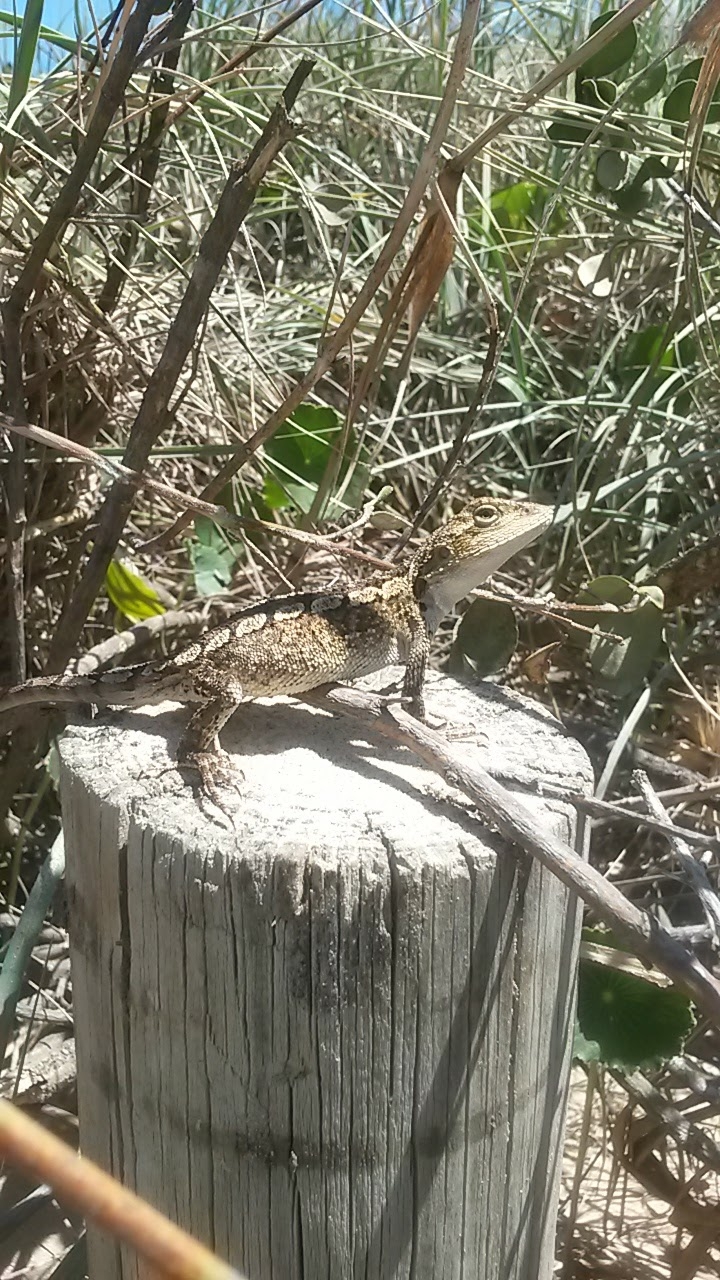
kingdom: Animalia
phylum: Chordata
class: Squamata
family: Agamidae
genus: Amphibolurus
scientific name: Amphibolurus muricatus
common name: Jacky lizard
